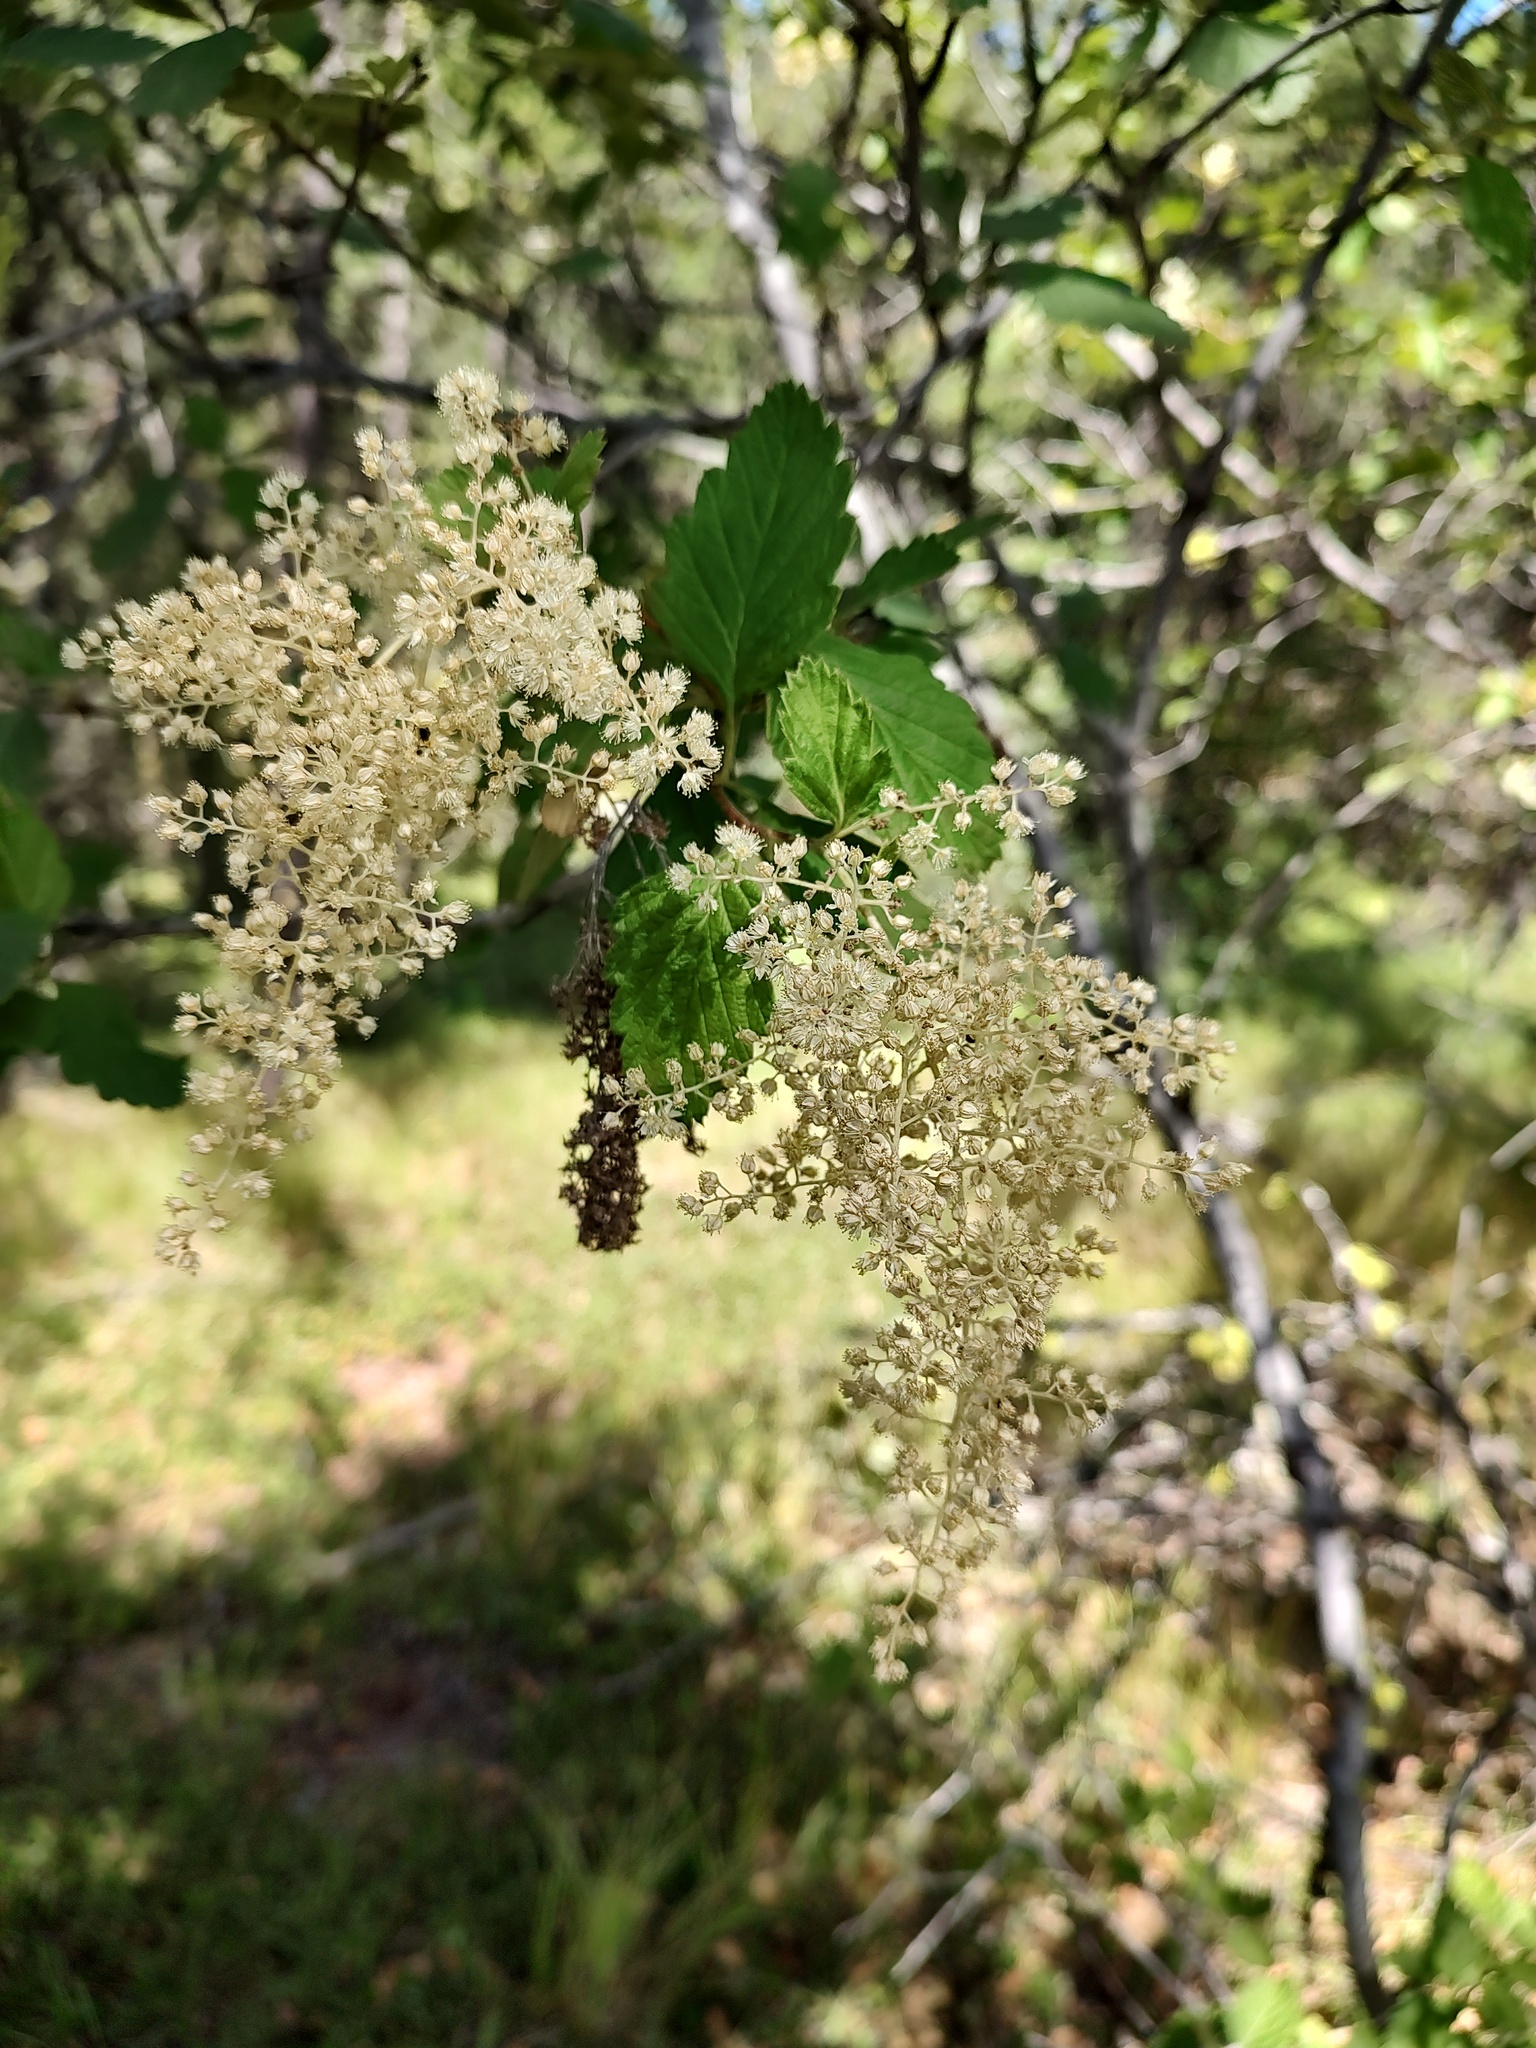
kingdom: Plantae
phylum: Tracheophyta
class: Magnoliopsida
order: Rosales
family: Rosaceae
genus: Holodiscus
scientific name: Holodiscus discolor
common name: Oceanspray
